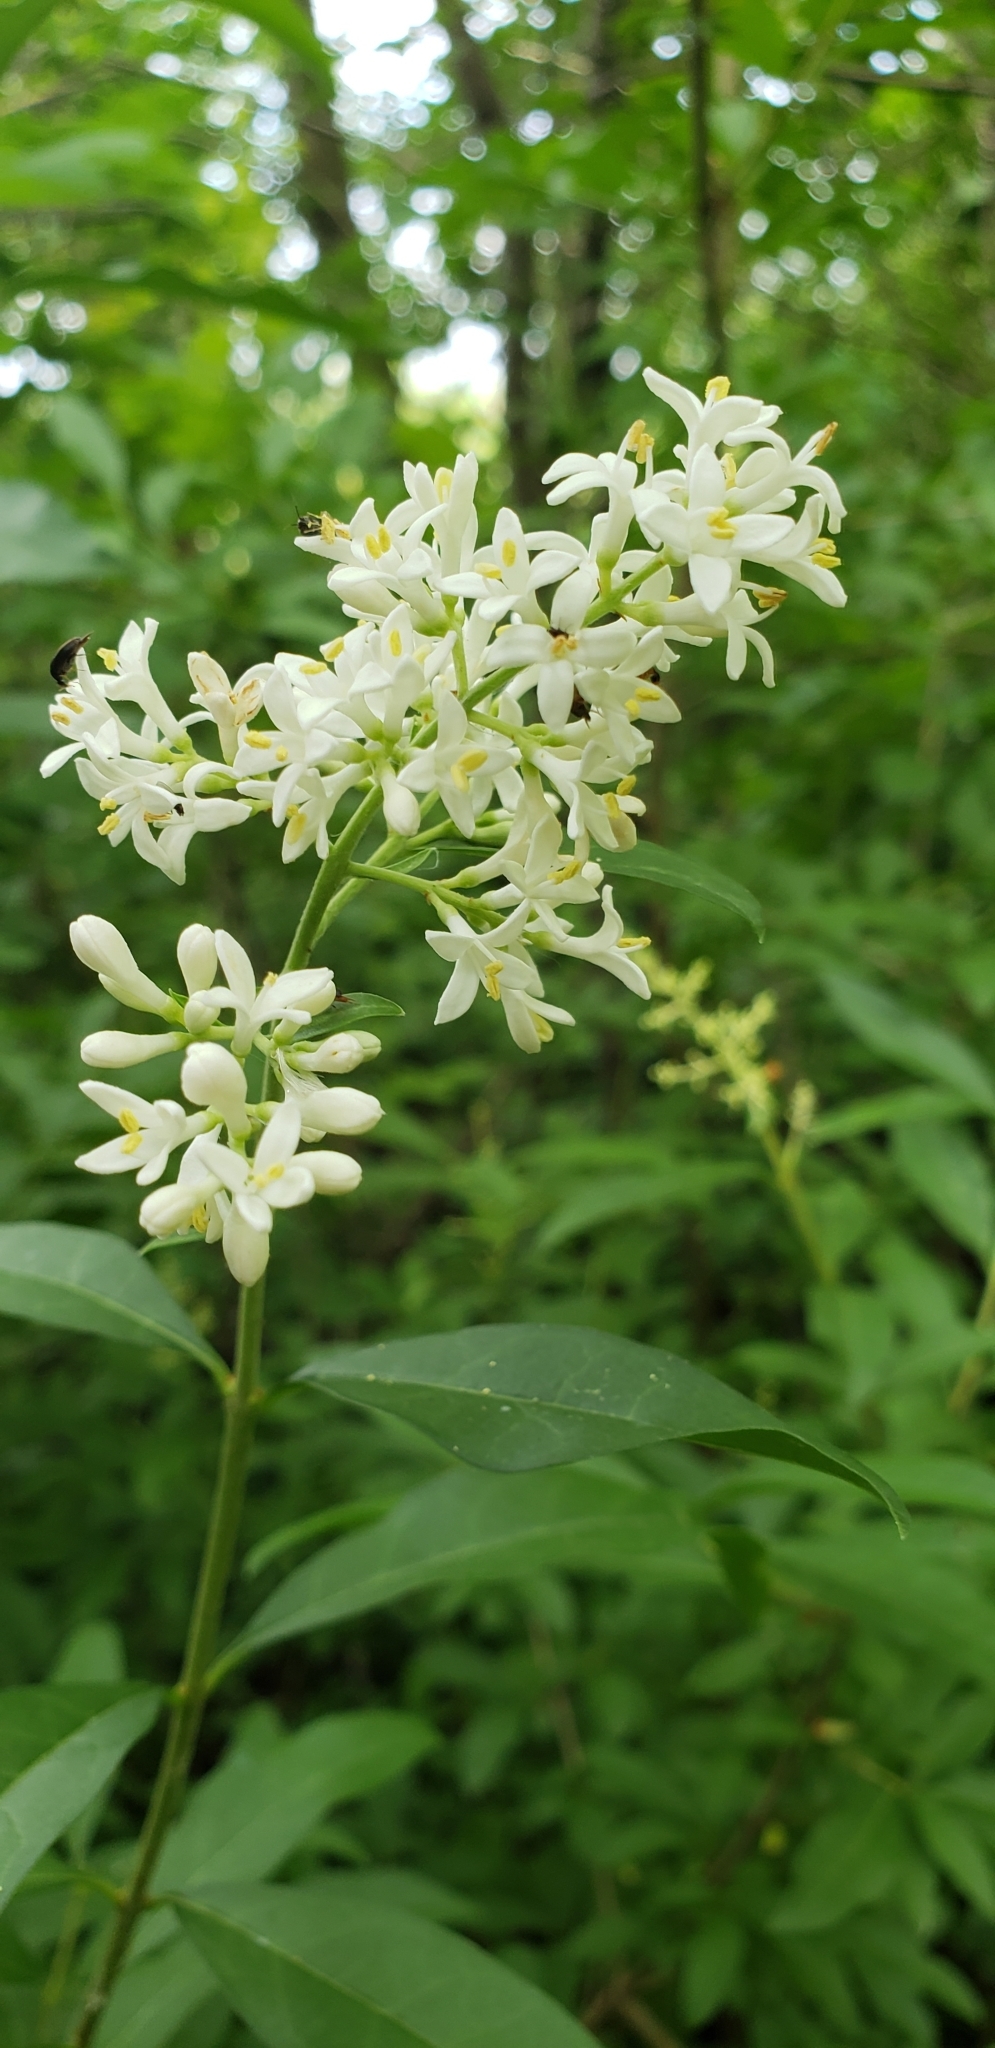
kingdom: Plantae
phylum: Tracheophyta
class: Magnoliopsida
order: Lamiales
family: Oleaceae
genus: Ligustrum
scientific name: Ligustrum vulgare
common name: Wild privet
